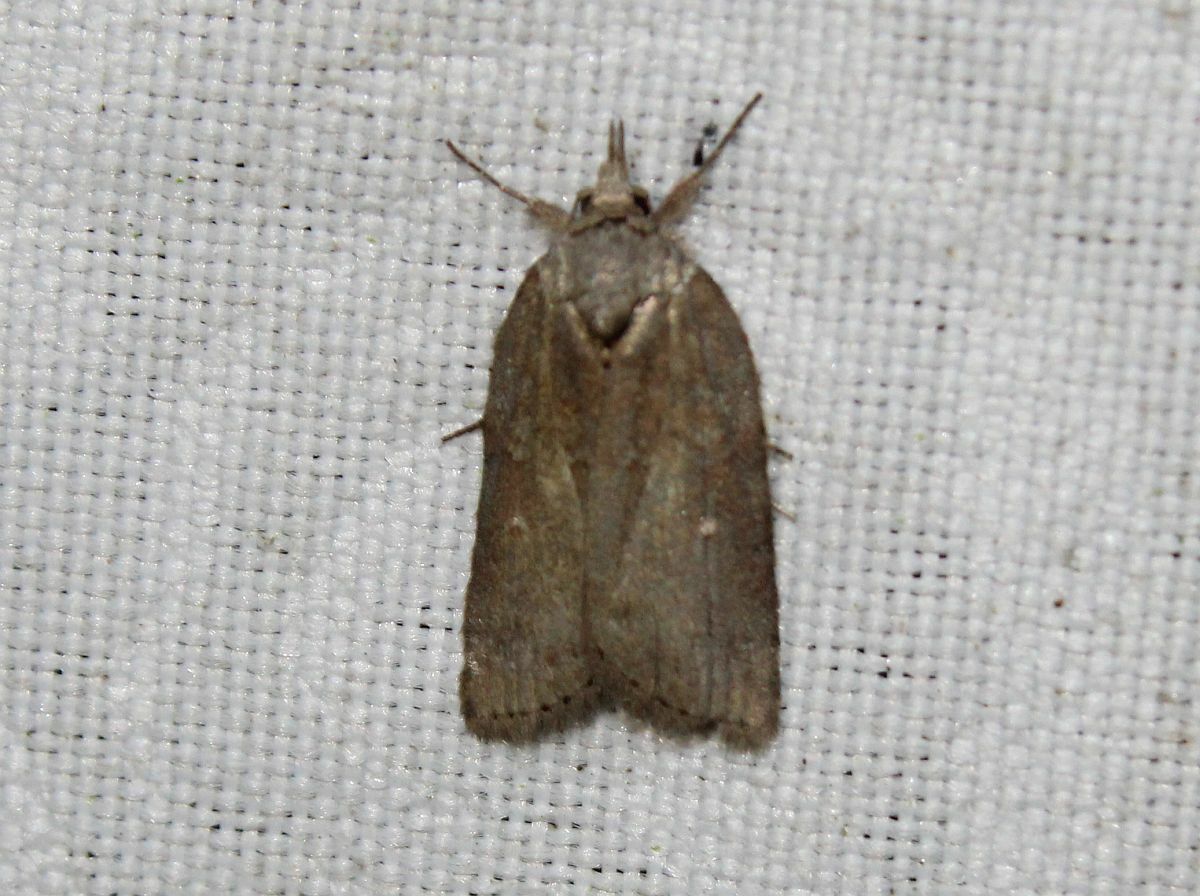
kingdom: Animalia
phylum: Arthropoda
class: Insecta
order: Lepidoptera
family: Nolidae
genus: Nycteola
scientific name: Nycteola revayana
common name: Oak nycteoline
